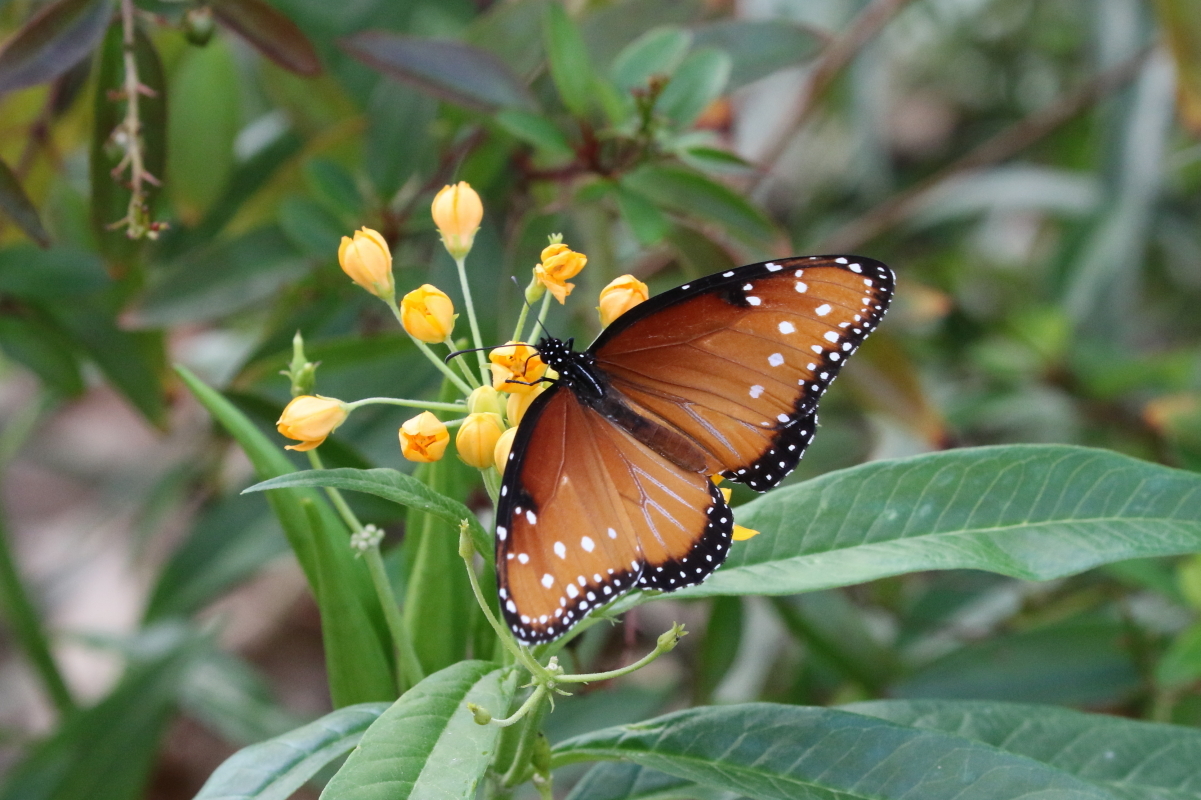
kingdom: Animalia
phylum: Arthropoda
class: Insecta
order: Lepidoptera
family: Nymphalidae
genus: Danaus
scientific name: Danaus gilippus
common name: Queen
